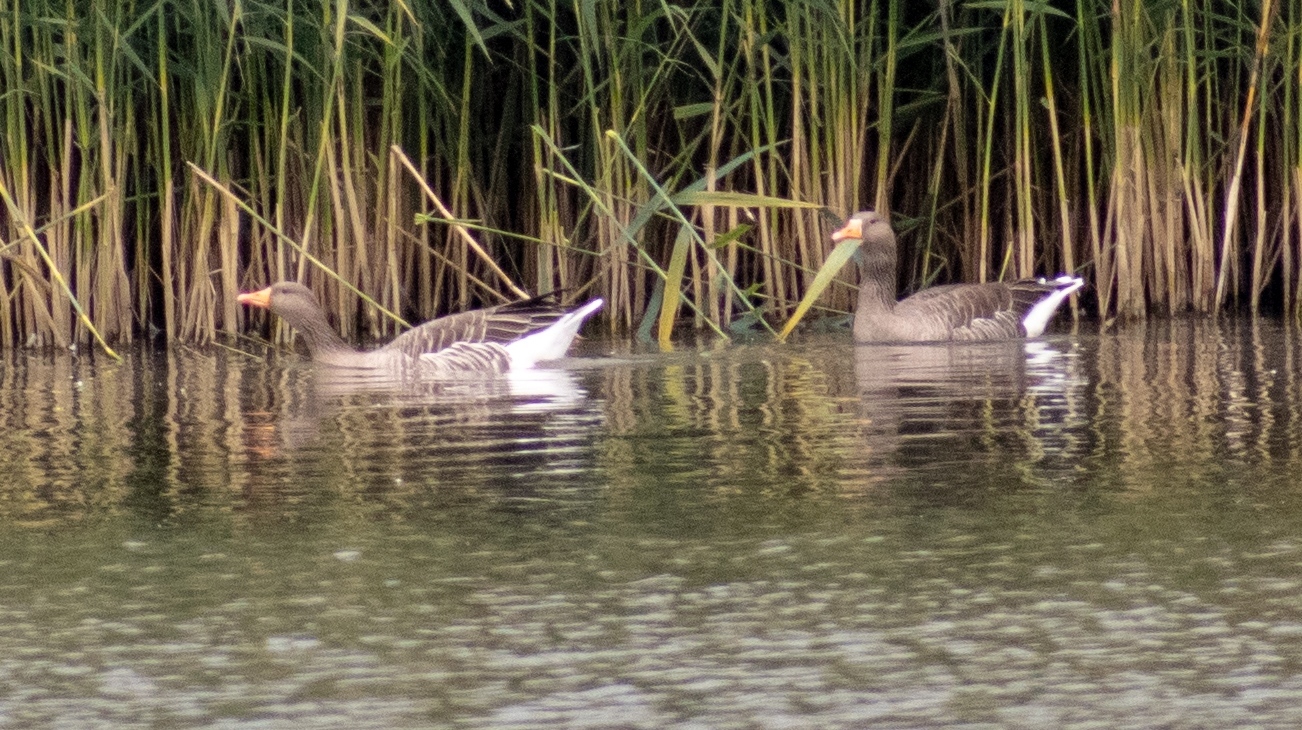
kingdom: Animalia
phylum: Chordata
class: Aves
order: Anseriformes
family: Anatidae
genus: Anser
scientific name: Anser anser
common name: Greylag goose
